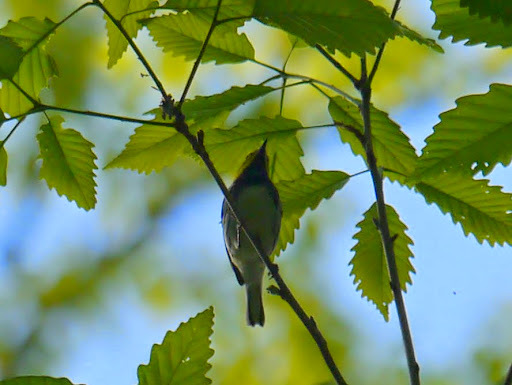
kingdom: Animalia
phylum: Chordata
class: Aves
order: Passeriformes
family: Parulidae
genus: Setophaga
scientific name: Setophaga virens
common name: Black-throated green warbler
